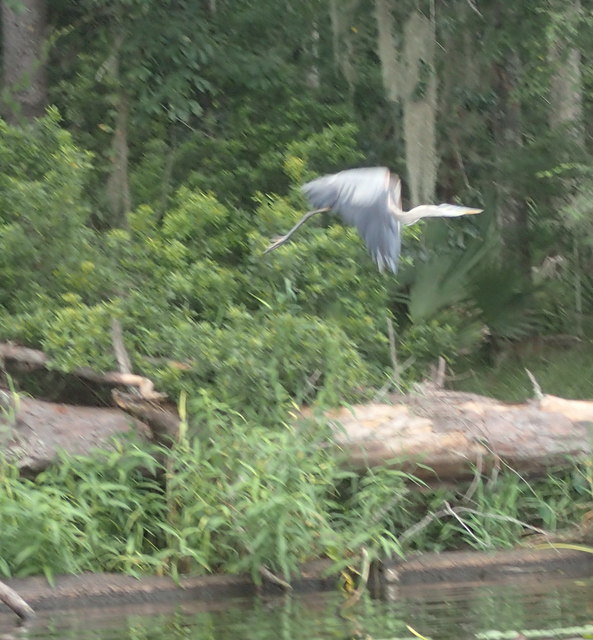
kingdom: Animalia
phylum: Chordata
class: Aves
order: Pelecaniformes
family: Ardeidae
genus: Ardea
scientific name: Ardea herodias
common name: Great blue heron
